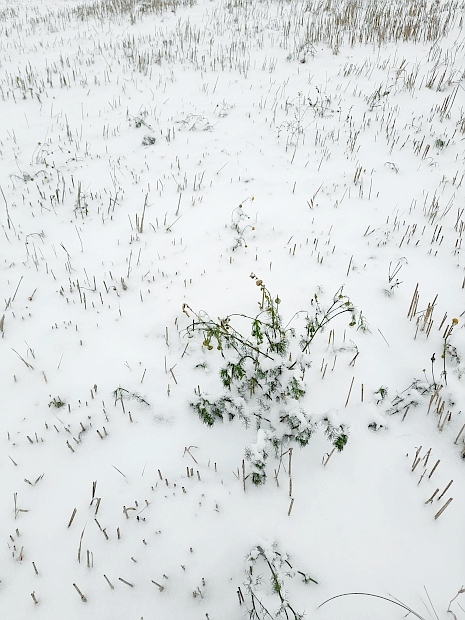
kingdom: Plantae
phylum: Tracheophyta
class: Magnoliopsida
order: Asterales
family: Asteraceae
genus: Tripleurospermum
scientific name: Tripleurospermum inodorum
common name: Scentless mayweed
